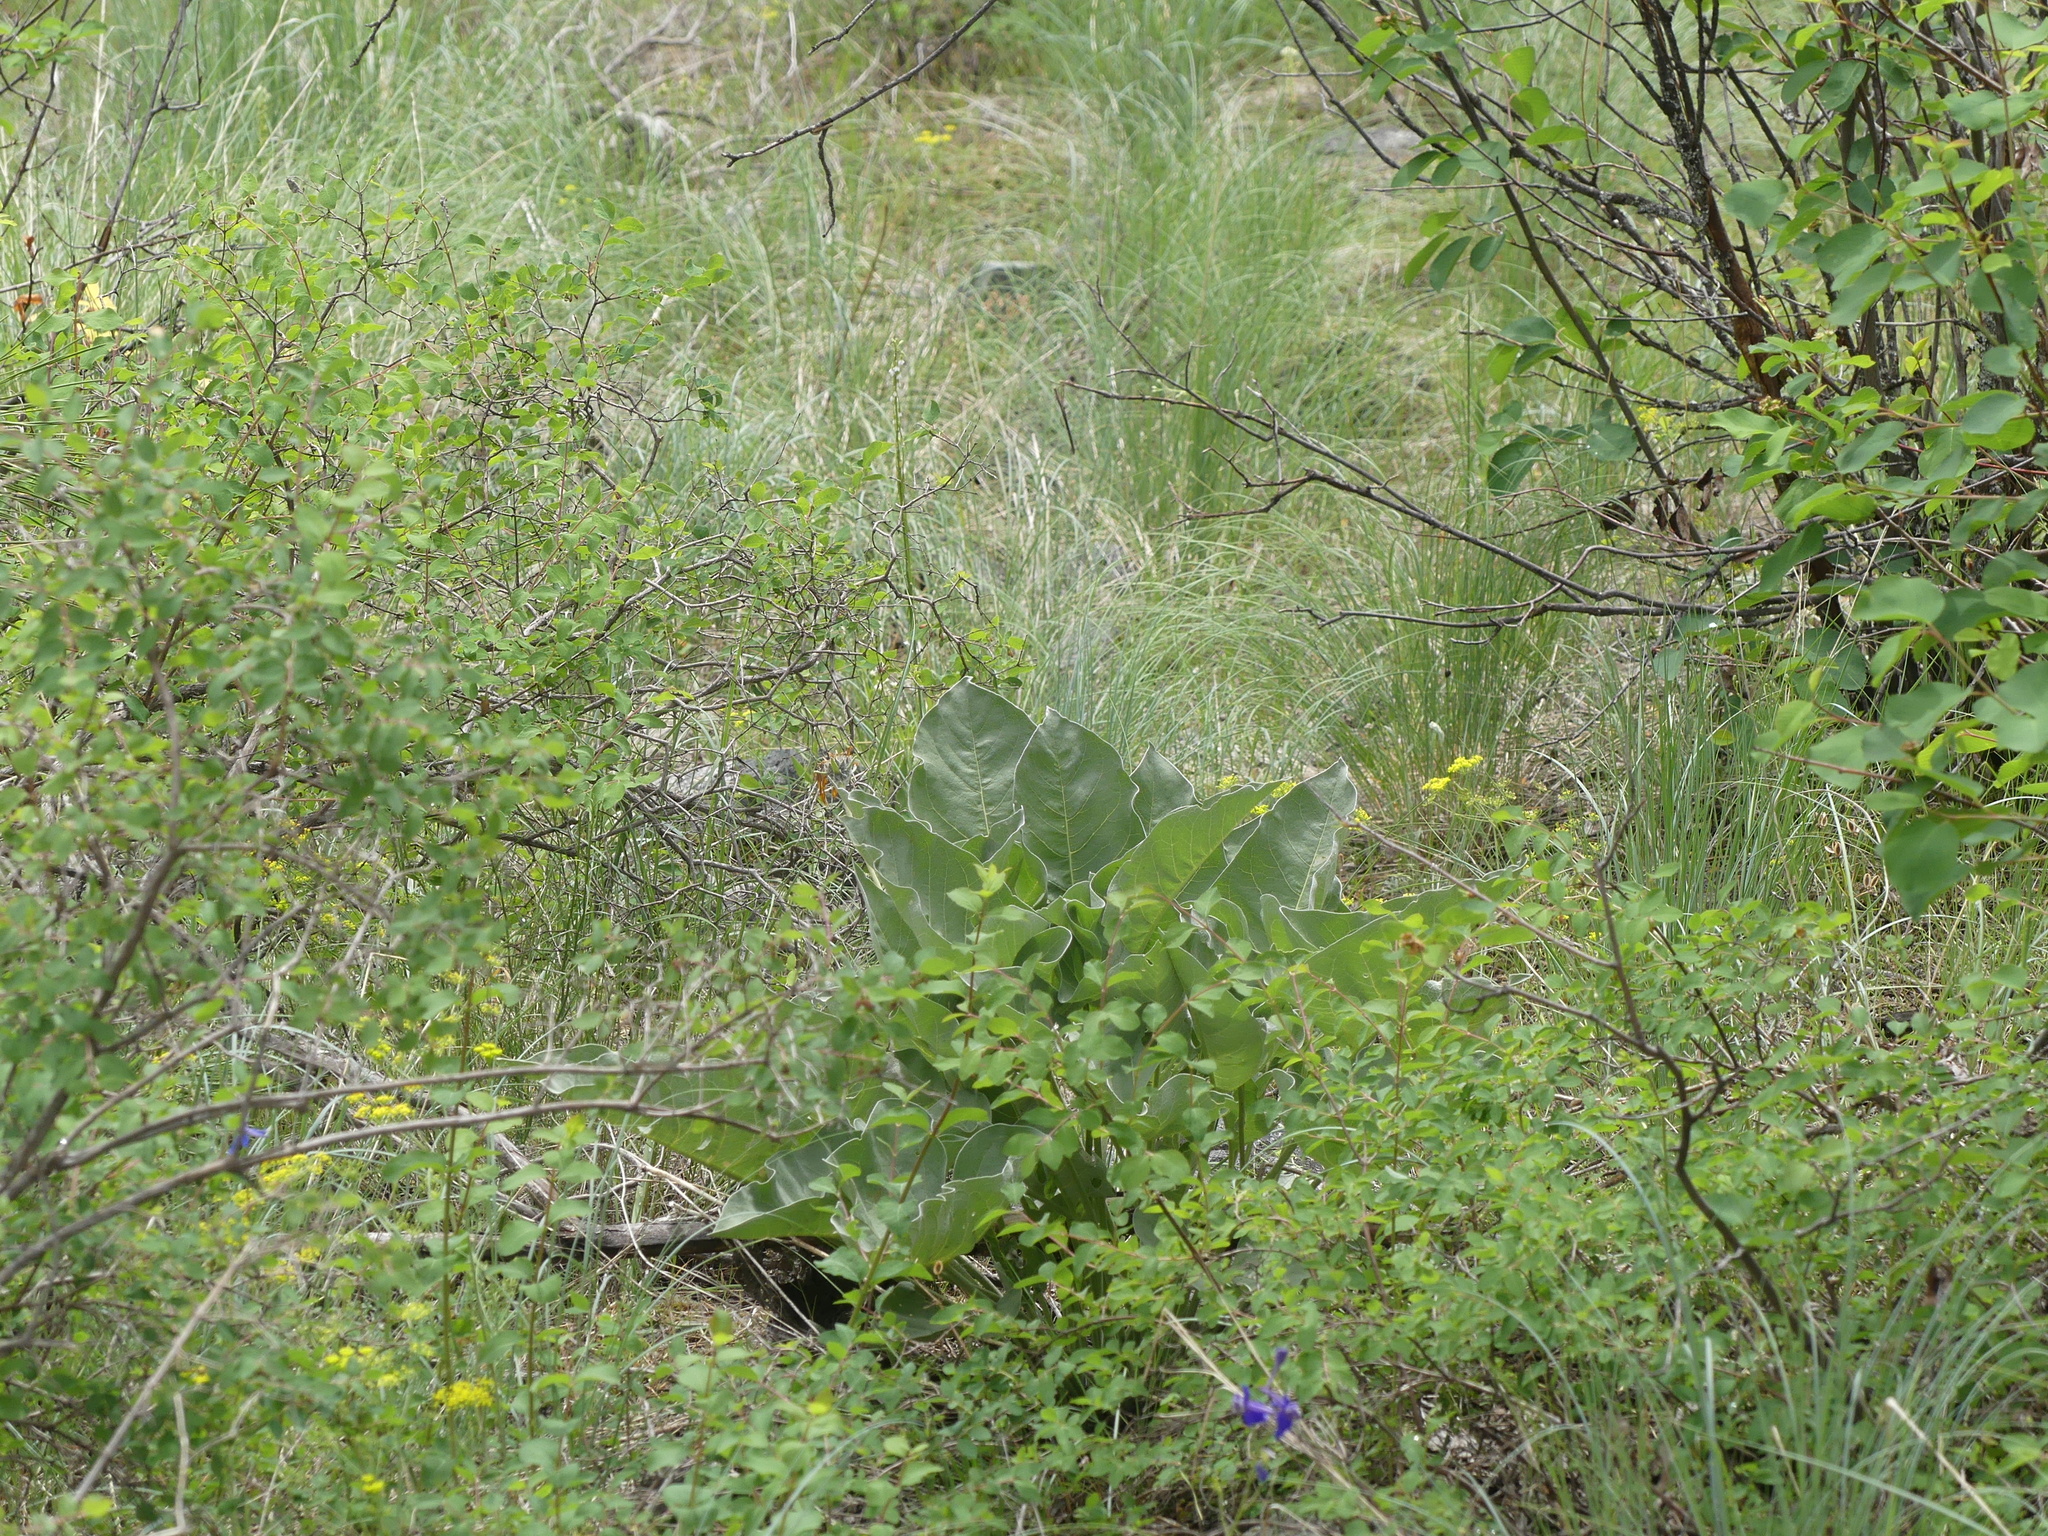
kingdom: Plantae
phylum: Tracheophyta
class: Magnoliopsida
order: Asterales
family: Asteraceae
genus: Wyethia
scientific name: Wyethia sagittata
